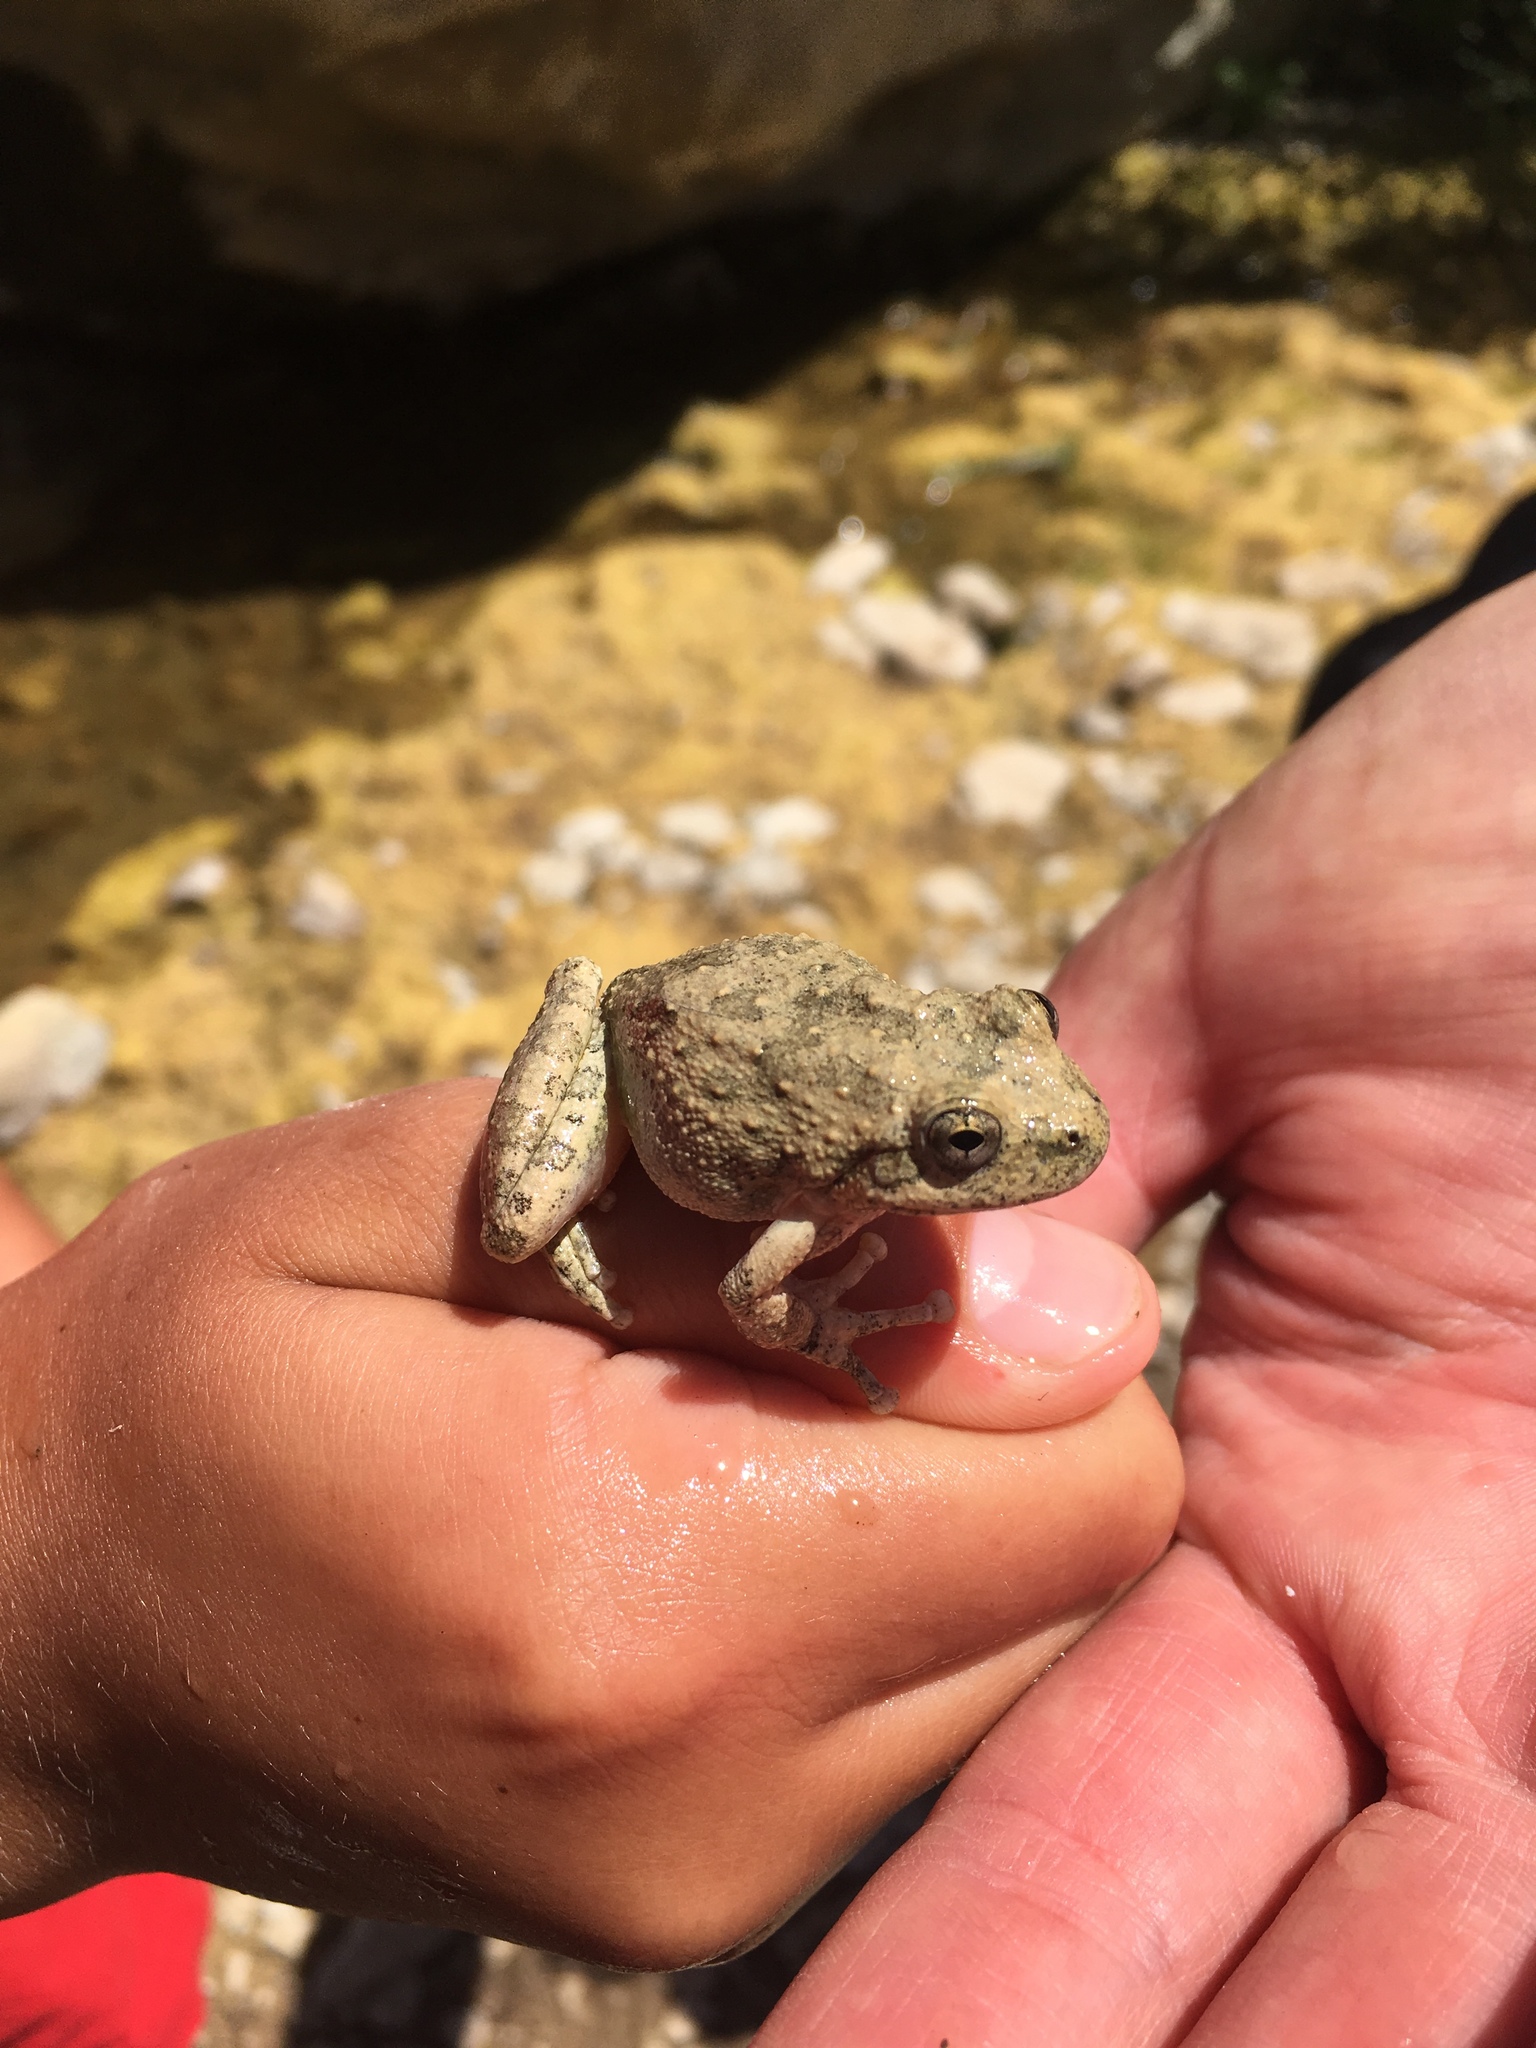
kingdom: Animalia
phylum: Chordata
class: Amphibia
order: Anura
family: Hylidae
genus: Pseudacris
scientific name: Pseudacris cadaverina
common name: California chorus frog
